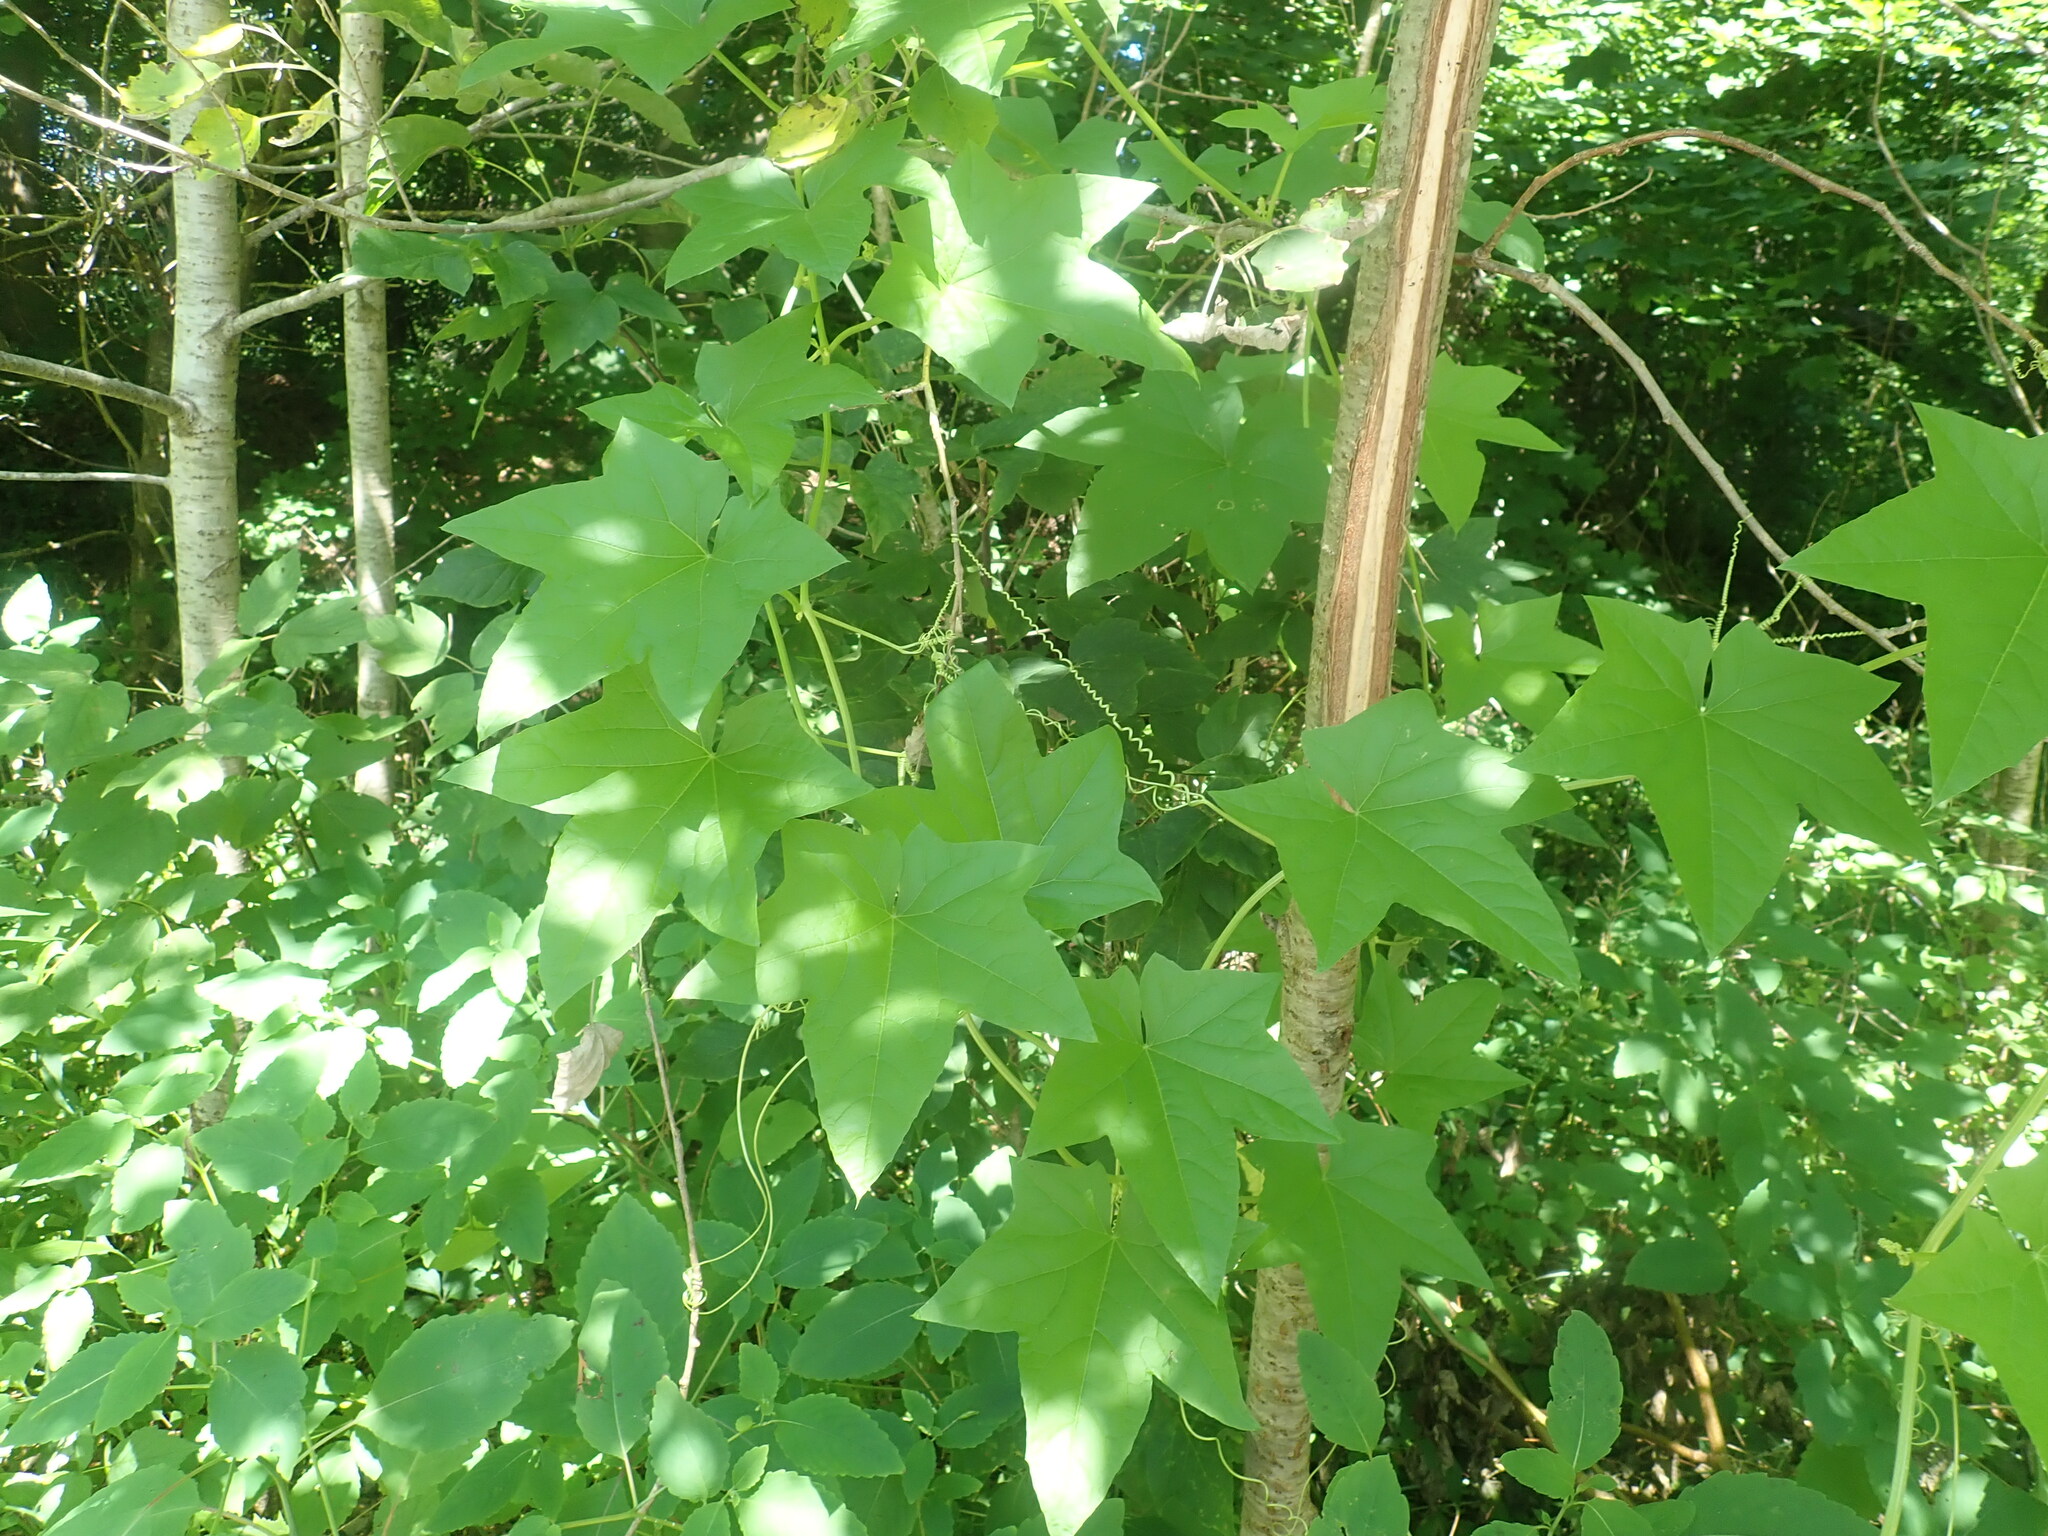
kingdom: Plantae
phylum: Tracheophyta
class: Magnoliopsida
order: Cucurbitales
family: Cucurbitaceae
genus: Echinocystis
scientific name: Echinocystis lobata
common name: Wild cucumber
